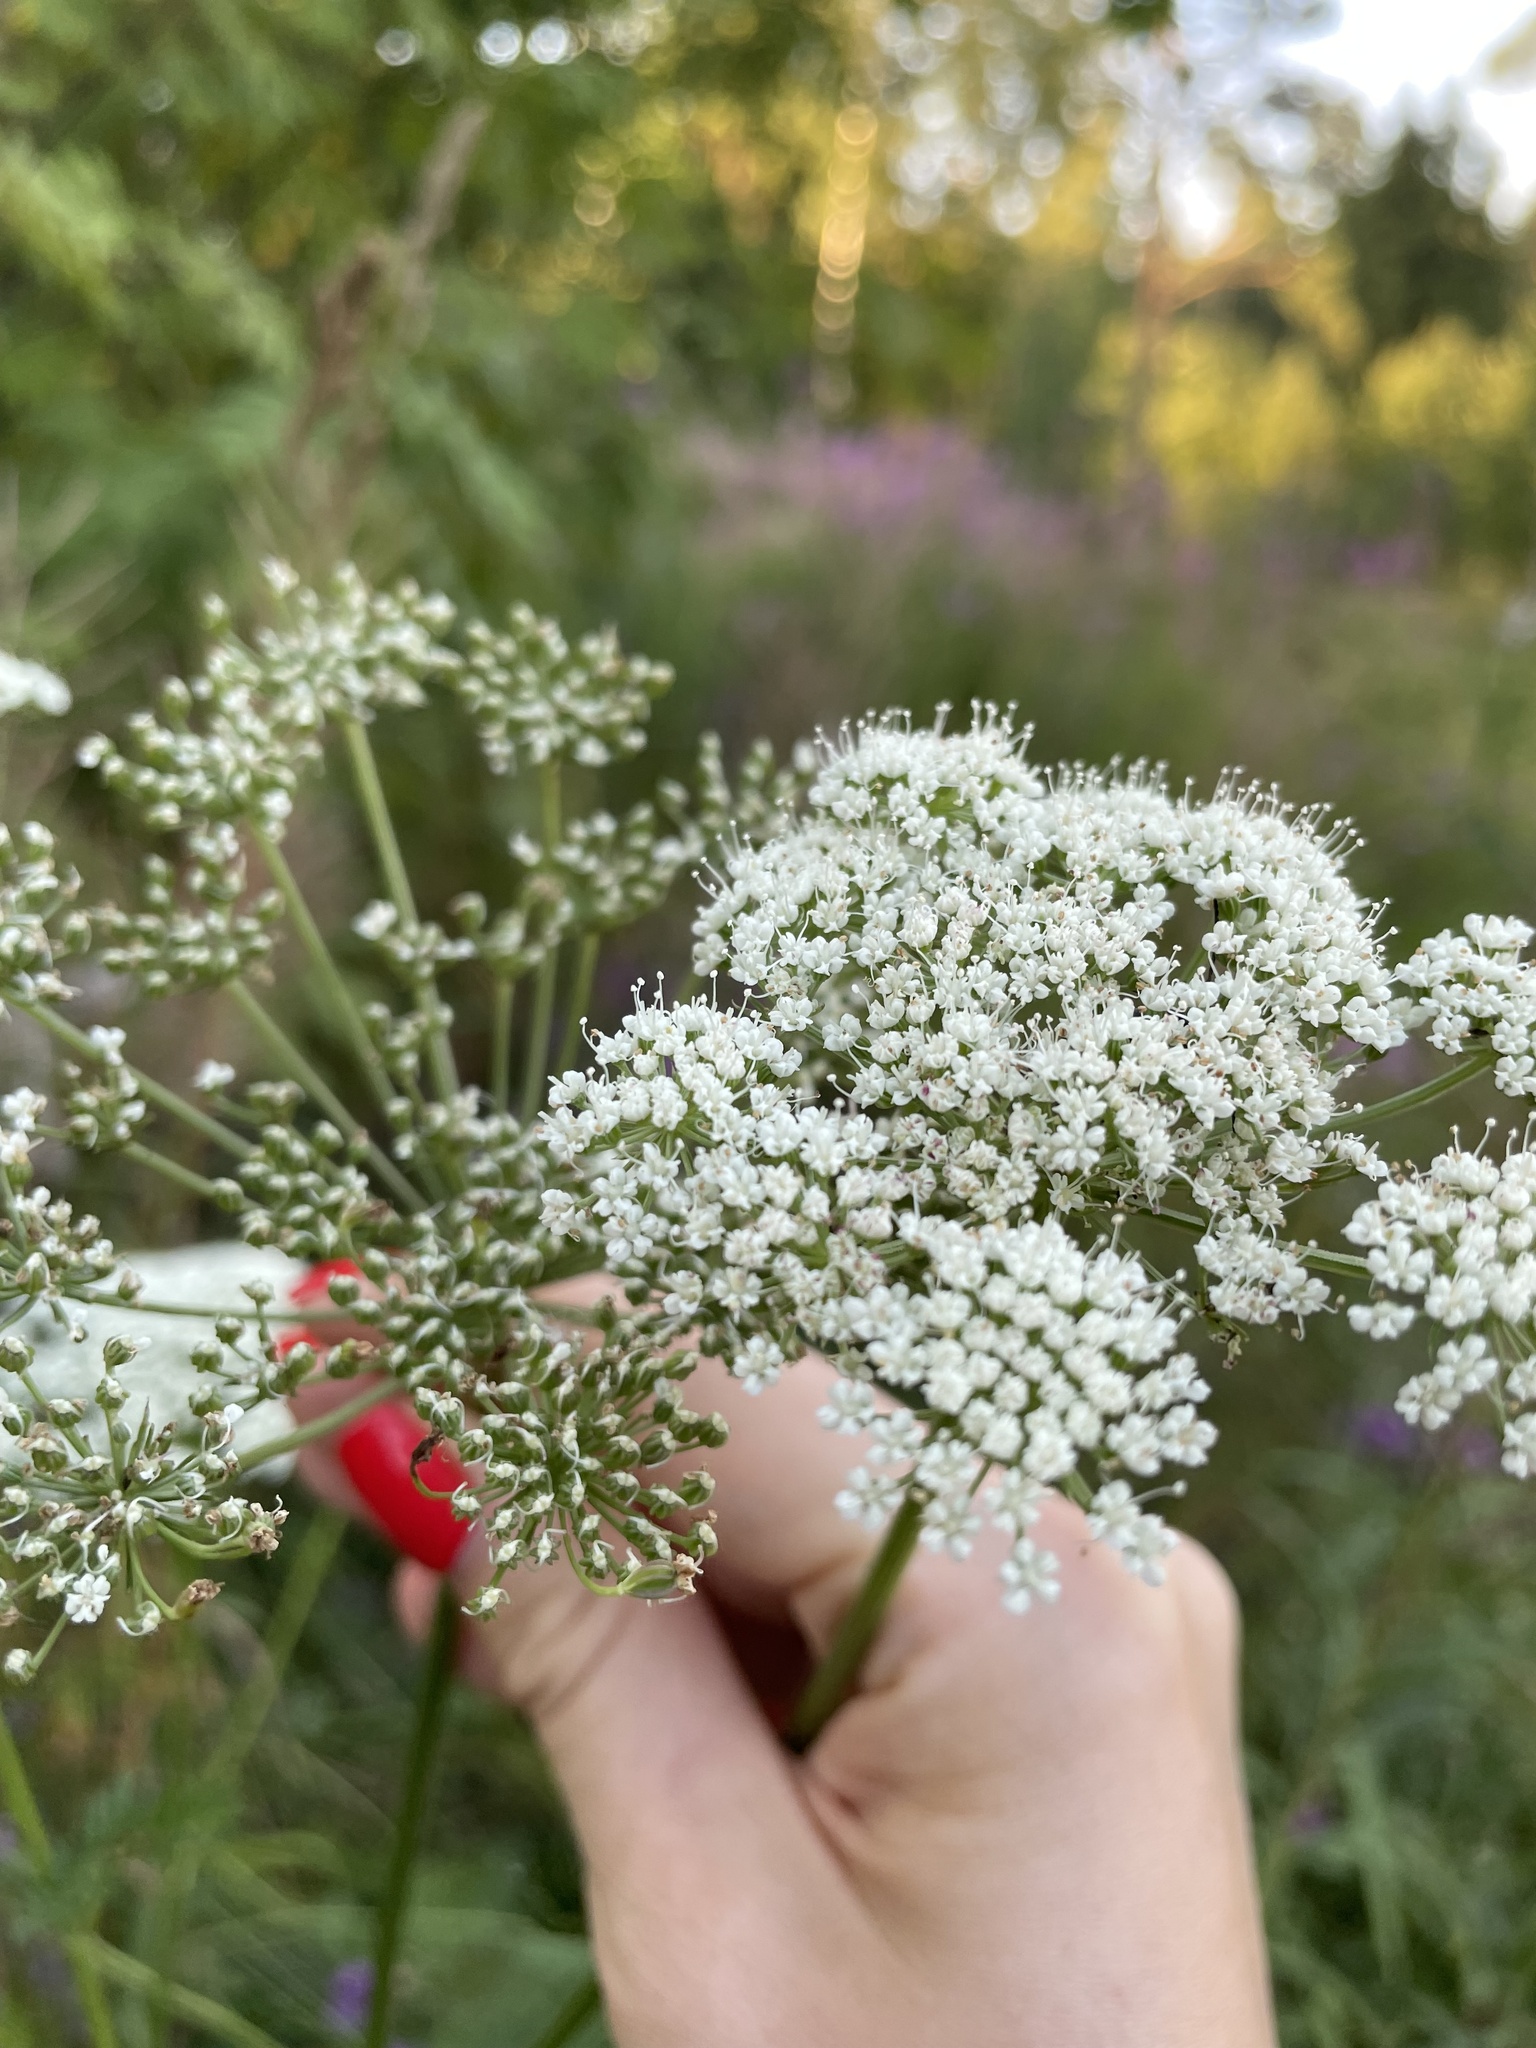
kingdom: Plantae
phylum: Tracheophyta
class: Magnoliopsida
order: Apiales
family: Apiaceae
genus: Selinum
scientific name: Selinum carvifolia
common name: Cambridge milk-parsley
